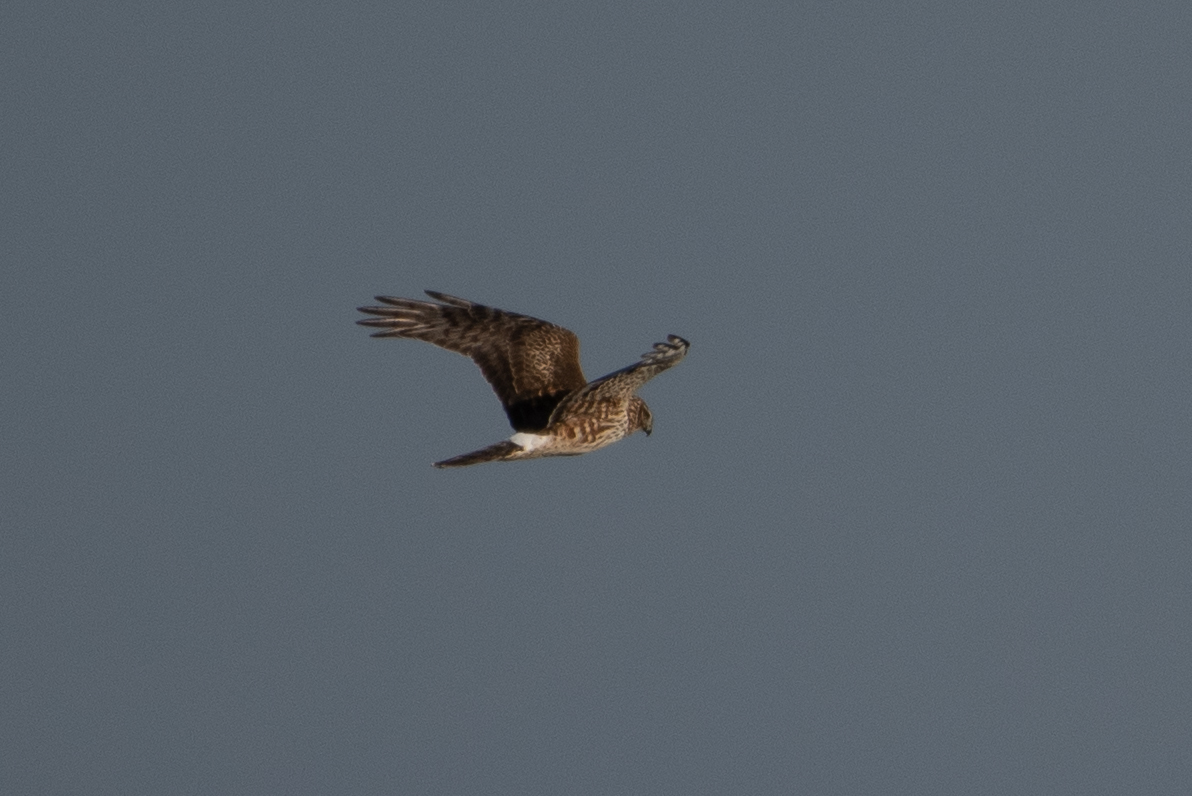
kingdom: Animalia
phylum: Chordata
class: Aves
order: Accipitriformes
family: Accipitridae
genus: Circus
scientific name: Circus cyaneus
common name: Hen harrier
